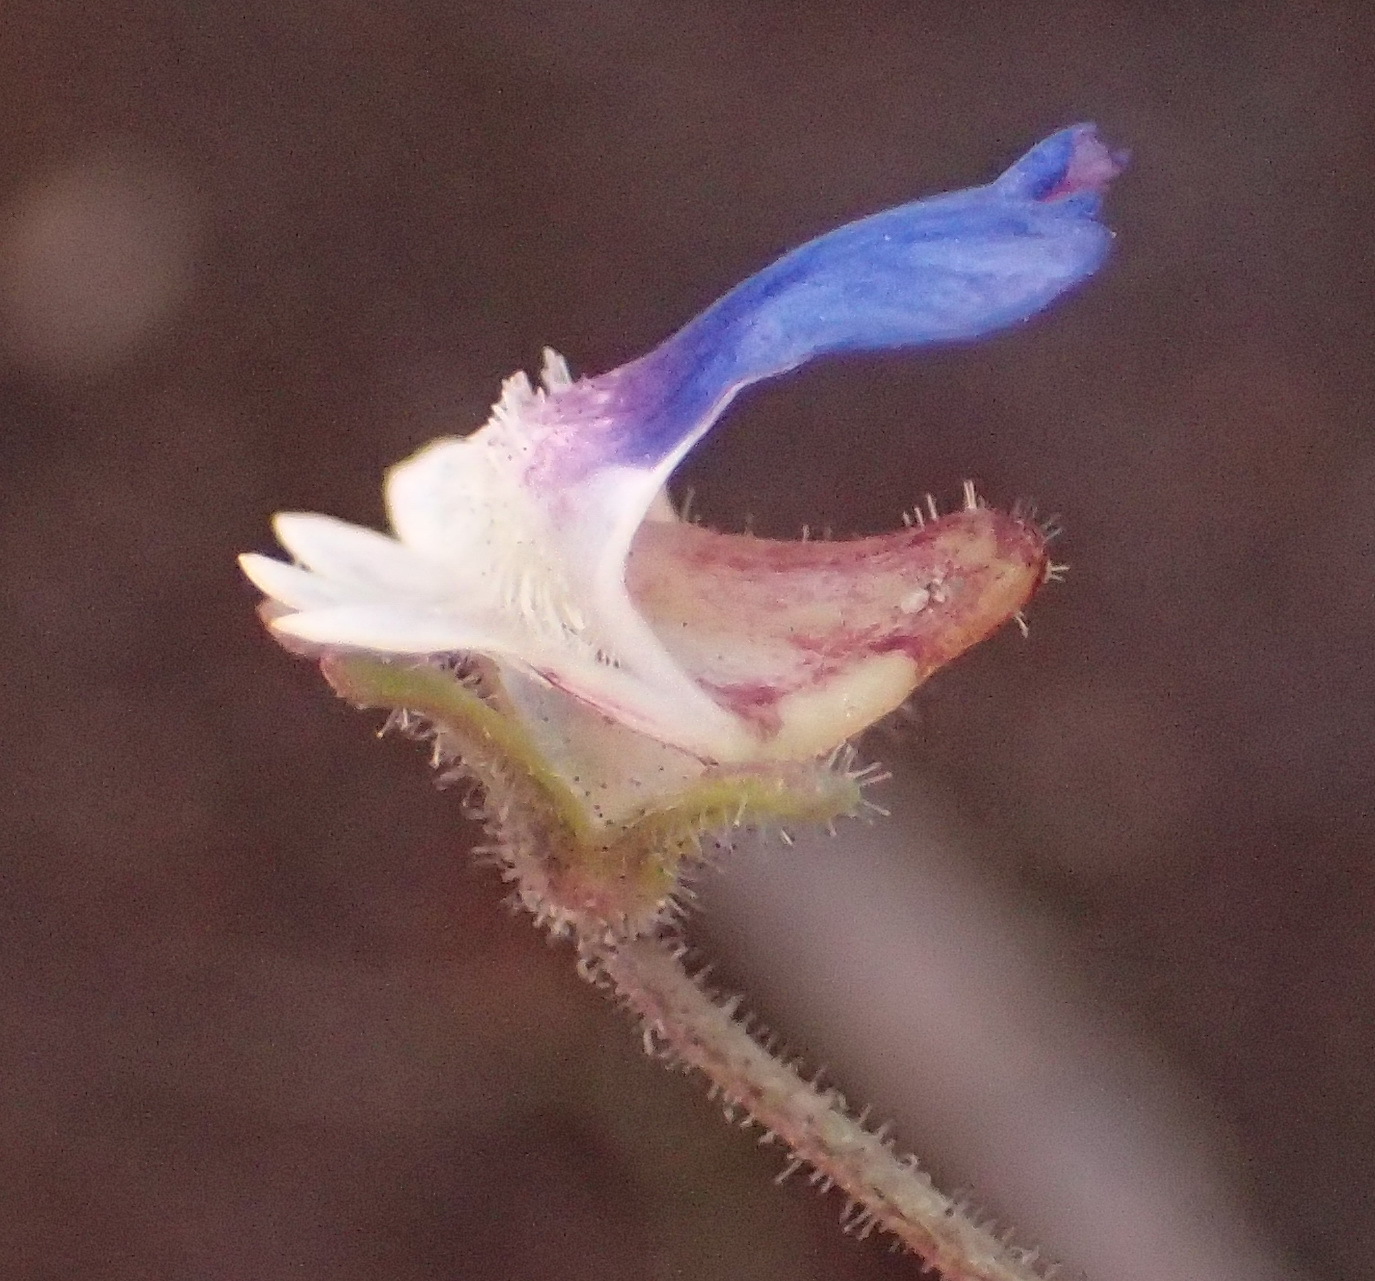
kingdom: Plantae
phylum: Tracheophyta
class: Magnoliopsida
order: Lamiales
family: Scrophulariaceae
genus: Nemesia
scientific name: Nemesia barbata
